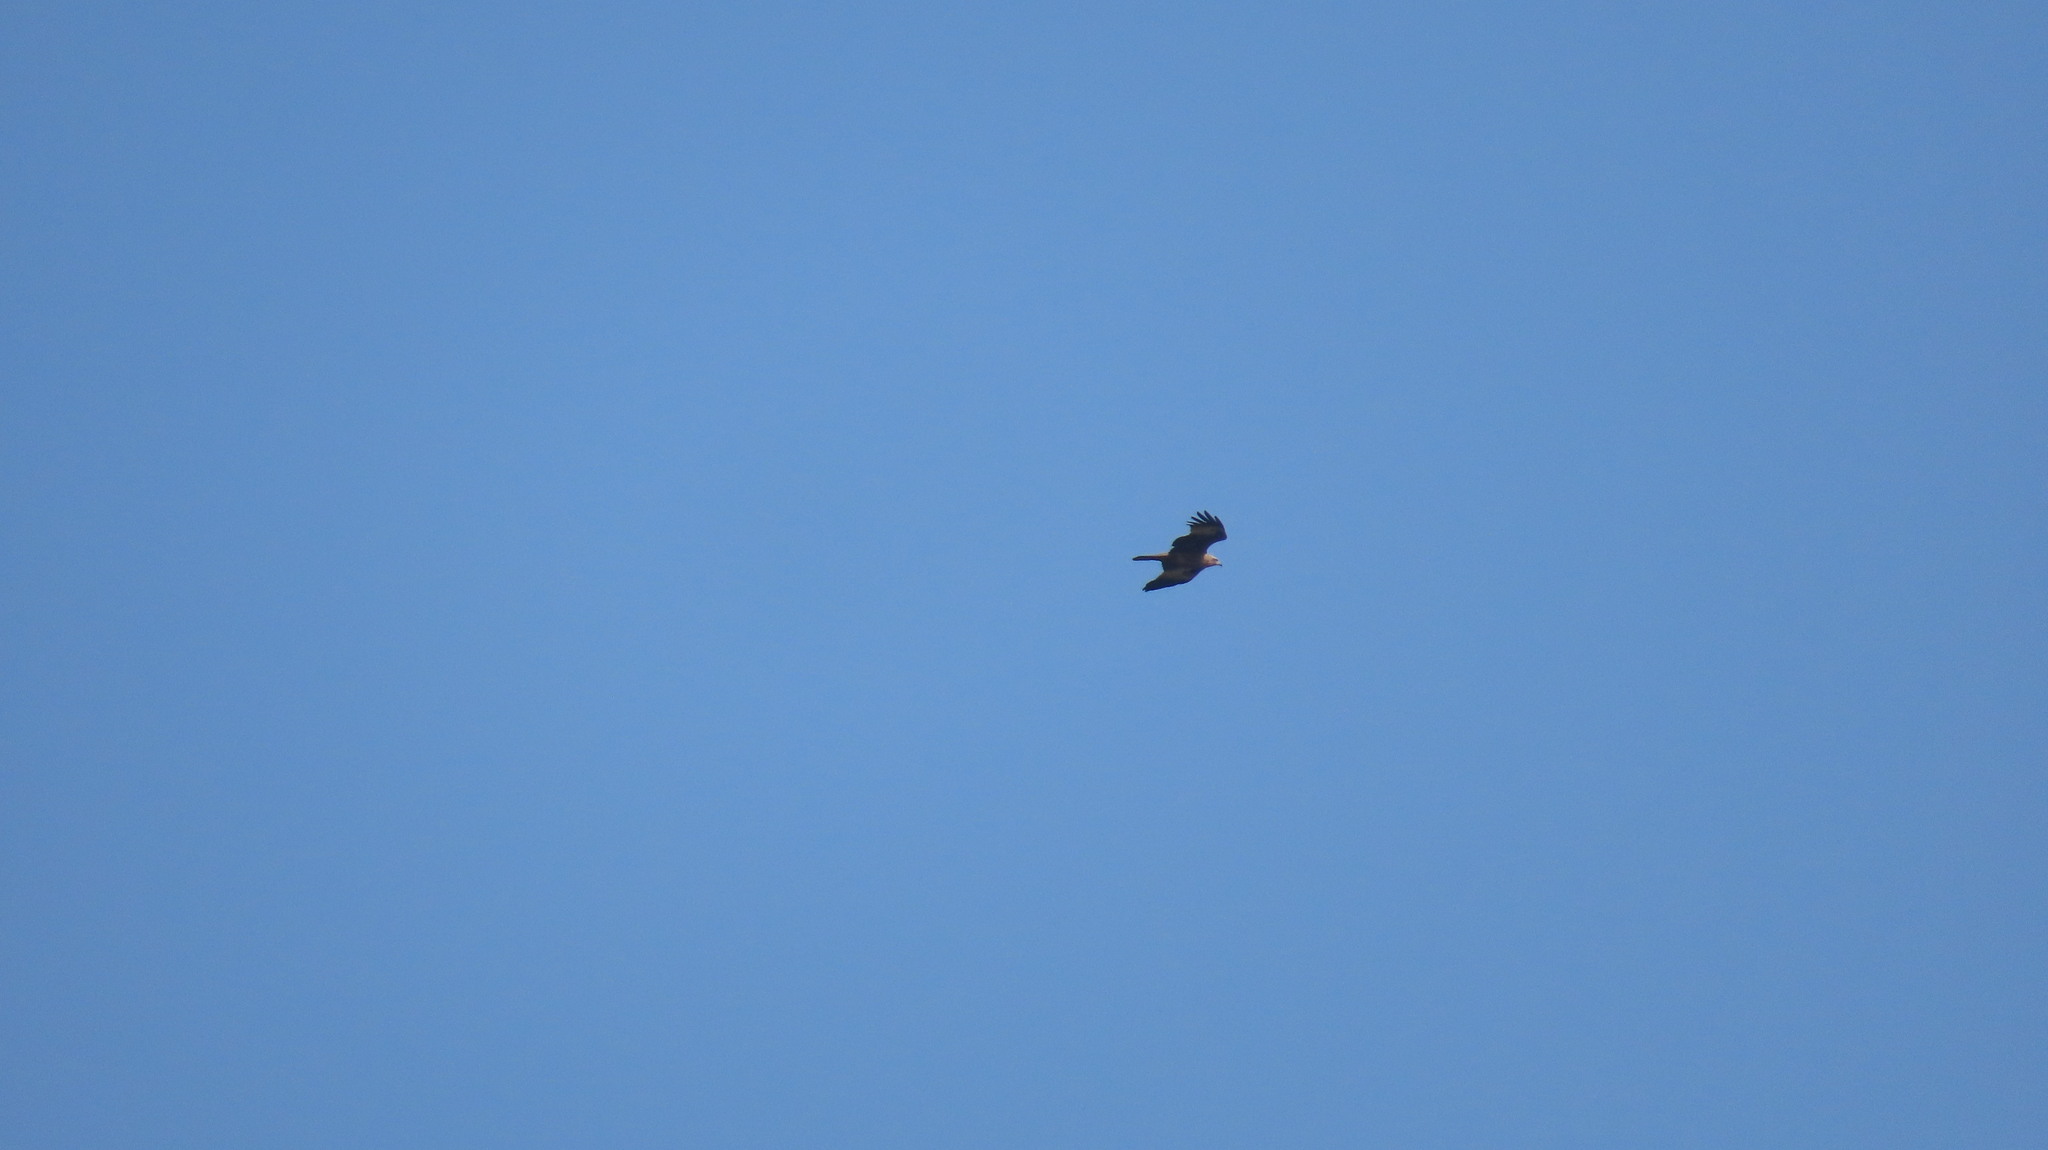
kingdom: Animalia
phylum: Chordata
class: Aves
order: Accipitriformes
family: Accipitridae
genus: Haliastur
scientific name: Haliastur indus
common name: Brahminy kite
